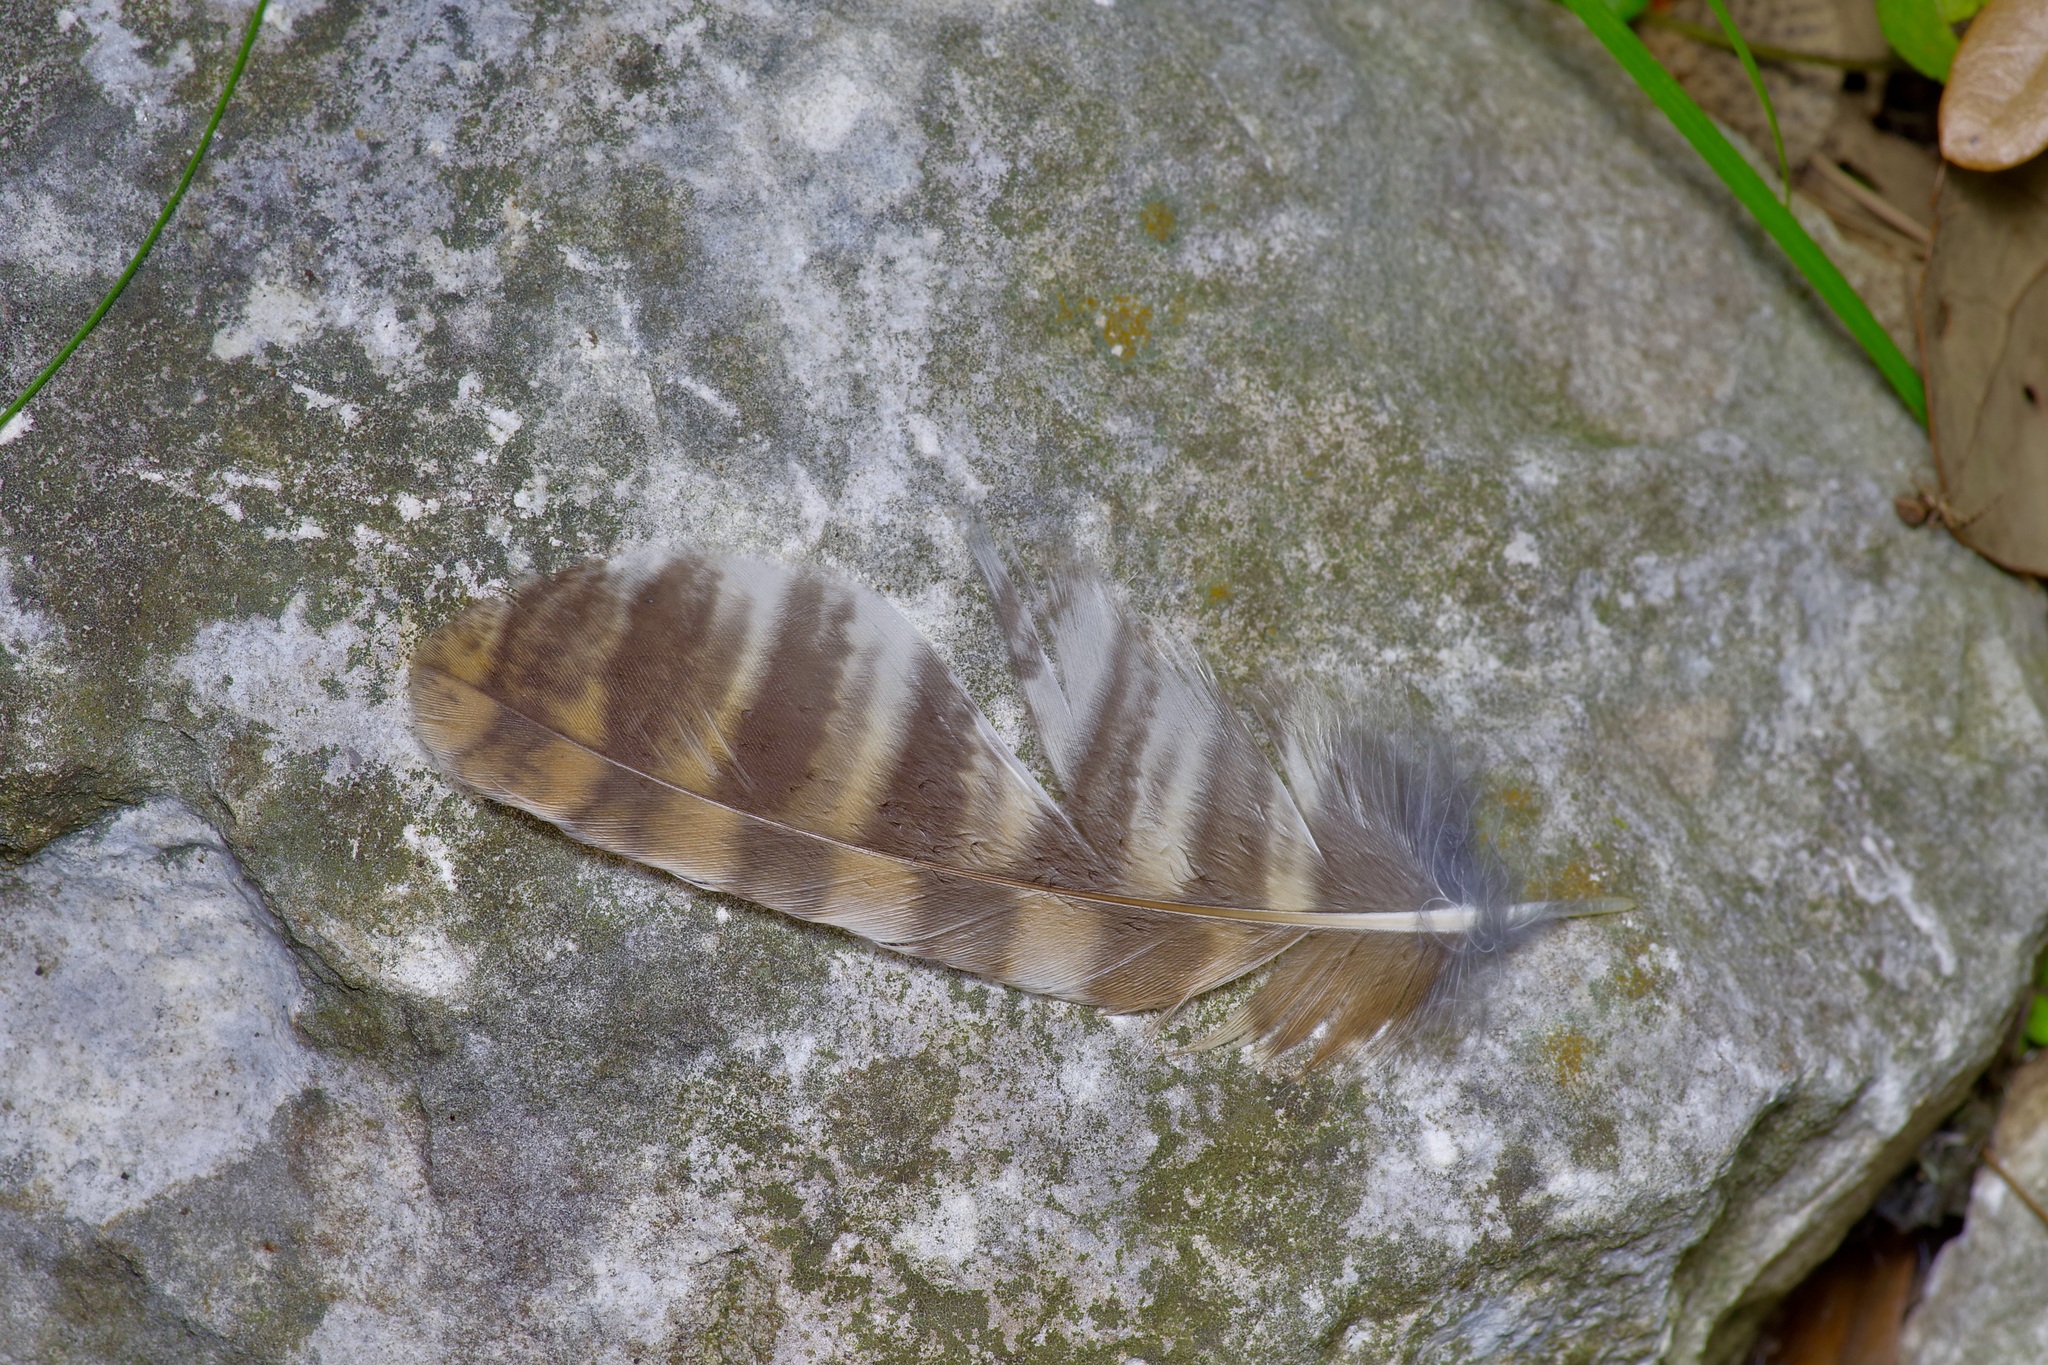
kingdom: Animalia
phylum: Chordata
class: Aves
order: Strigiformes
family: Strigidae
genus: Megascops
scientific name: Megascops asio
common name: Eastern screech-owl
